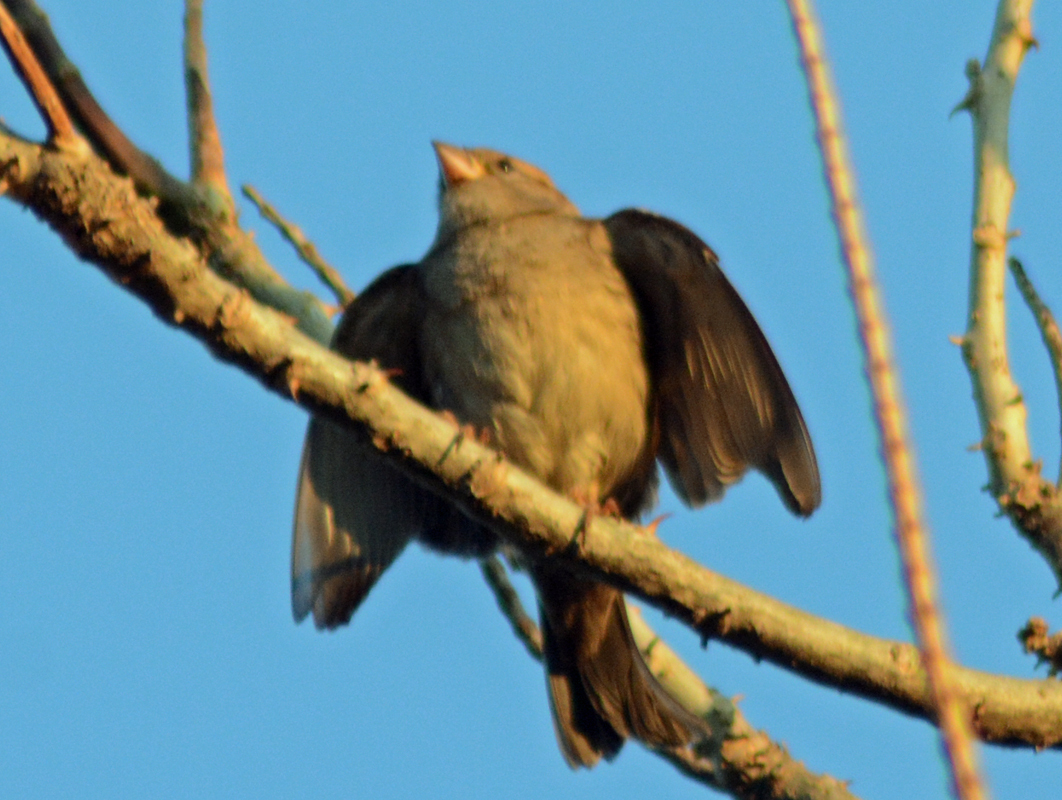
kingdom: Animalia
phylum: Chordata
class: Aves
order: Passeriformes
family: Passeridae
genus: Passer
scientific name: Passer domesticus
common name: House sparrow
